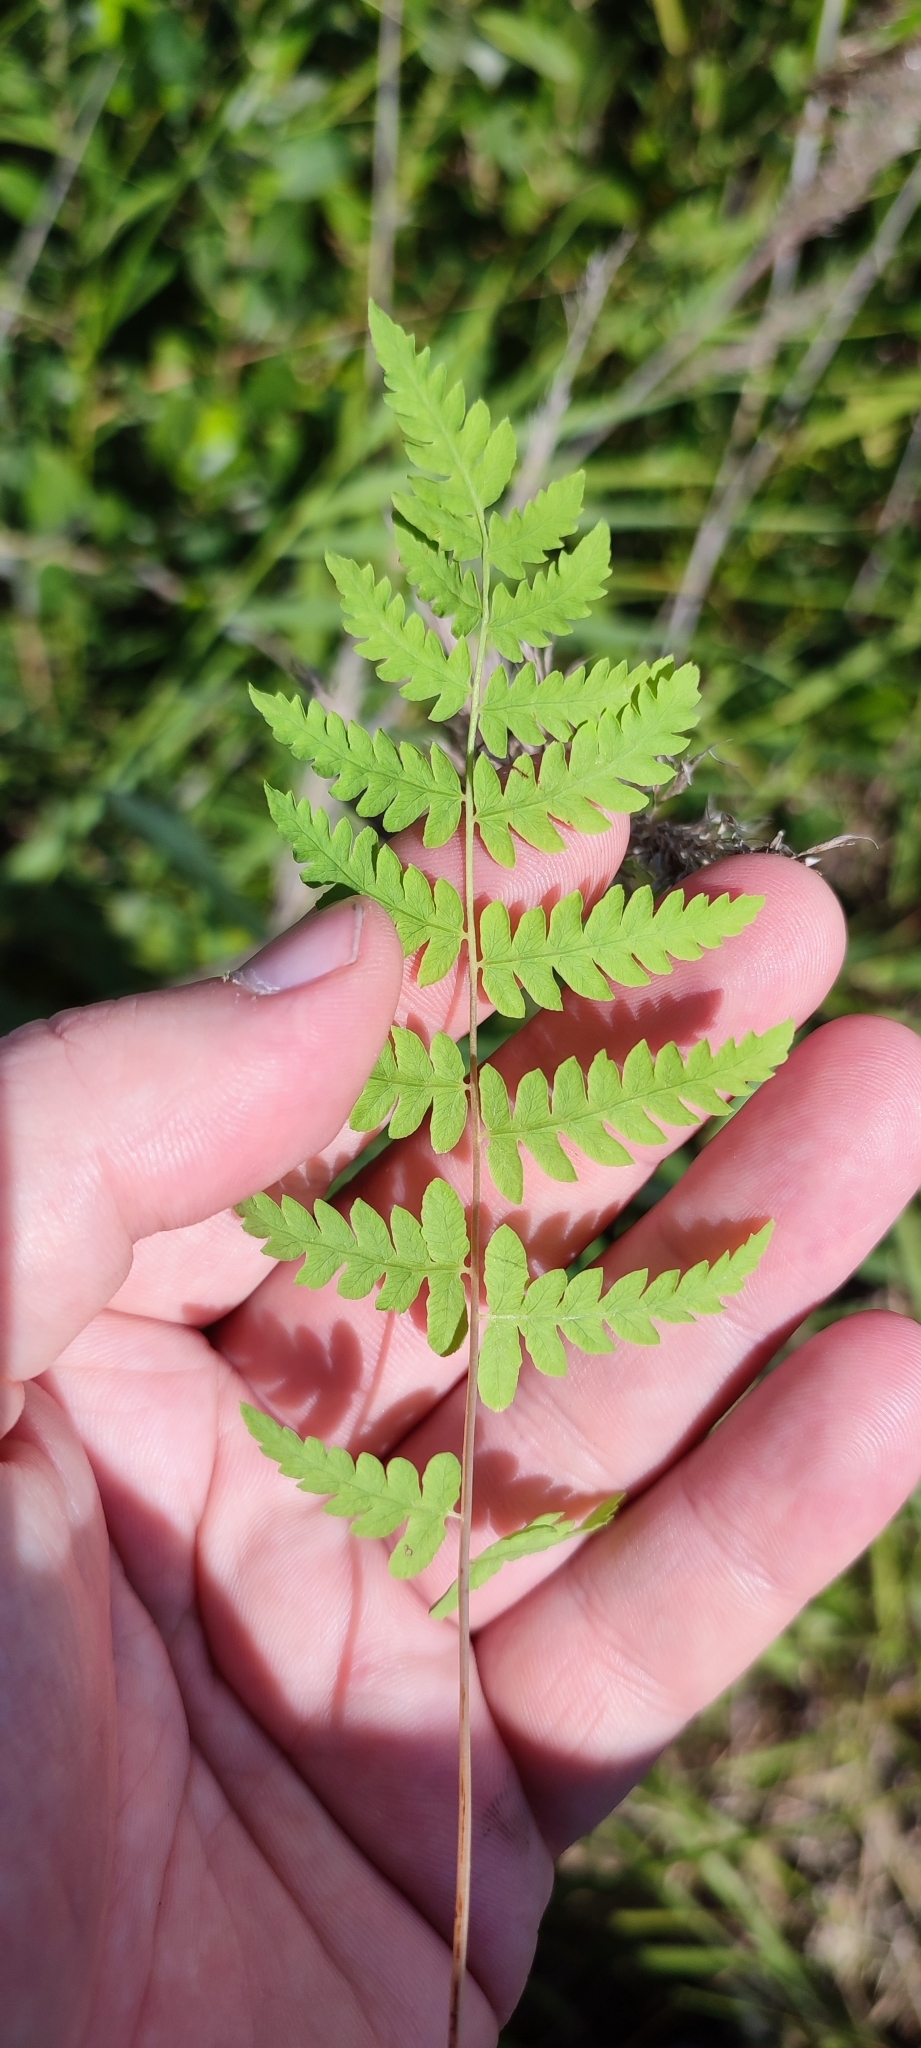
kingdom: Plantae
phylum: Tracheophyta
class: Polypodiopsida
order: Polypodiales
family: Thelypteridaceae
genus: Thelypteris
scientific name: Thelypteris palustris
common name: Marsh fern
